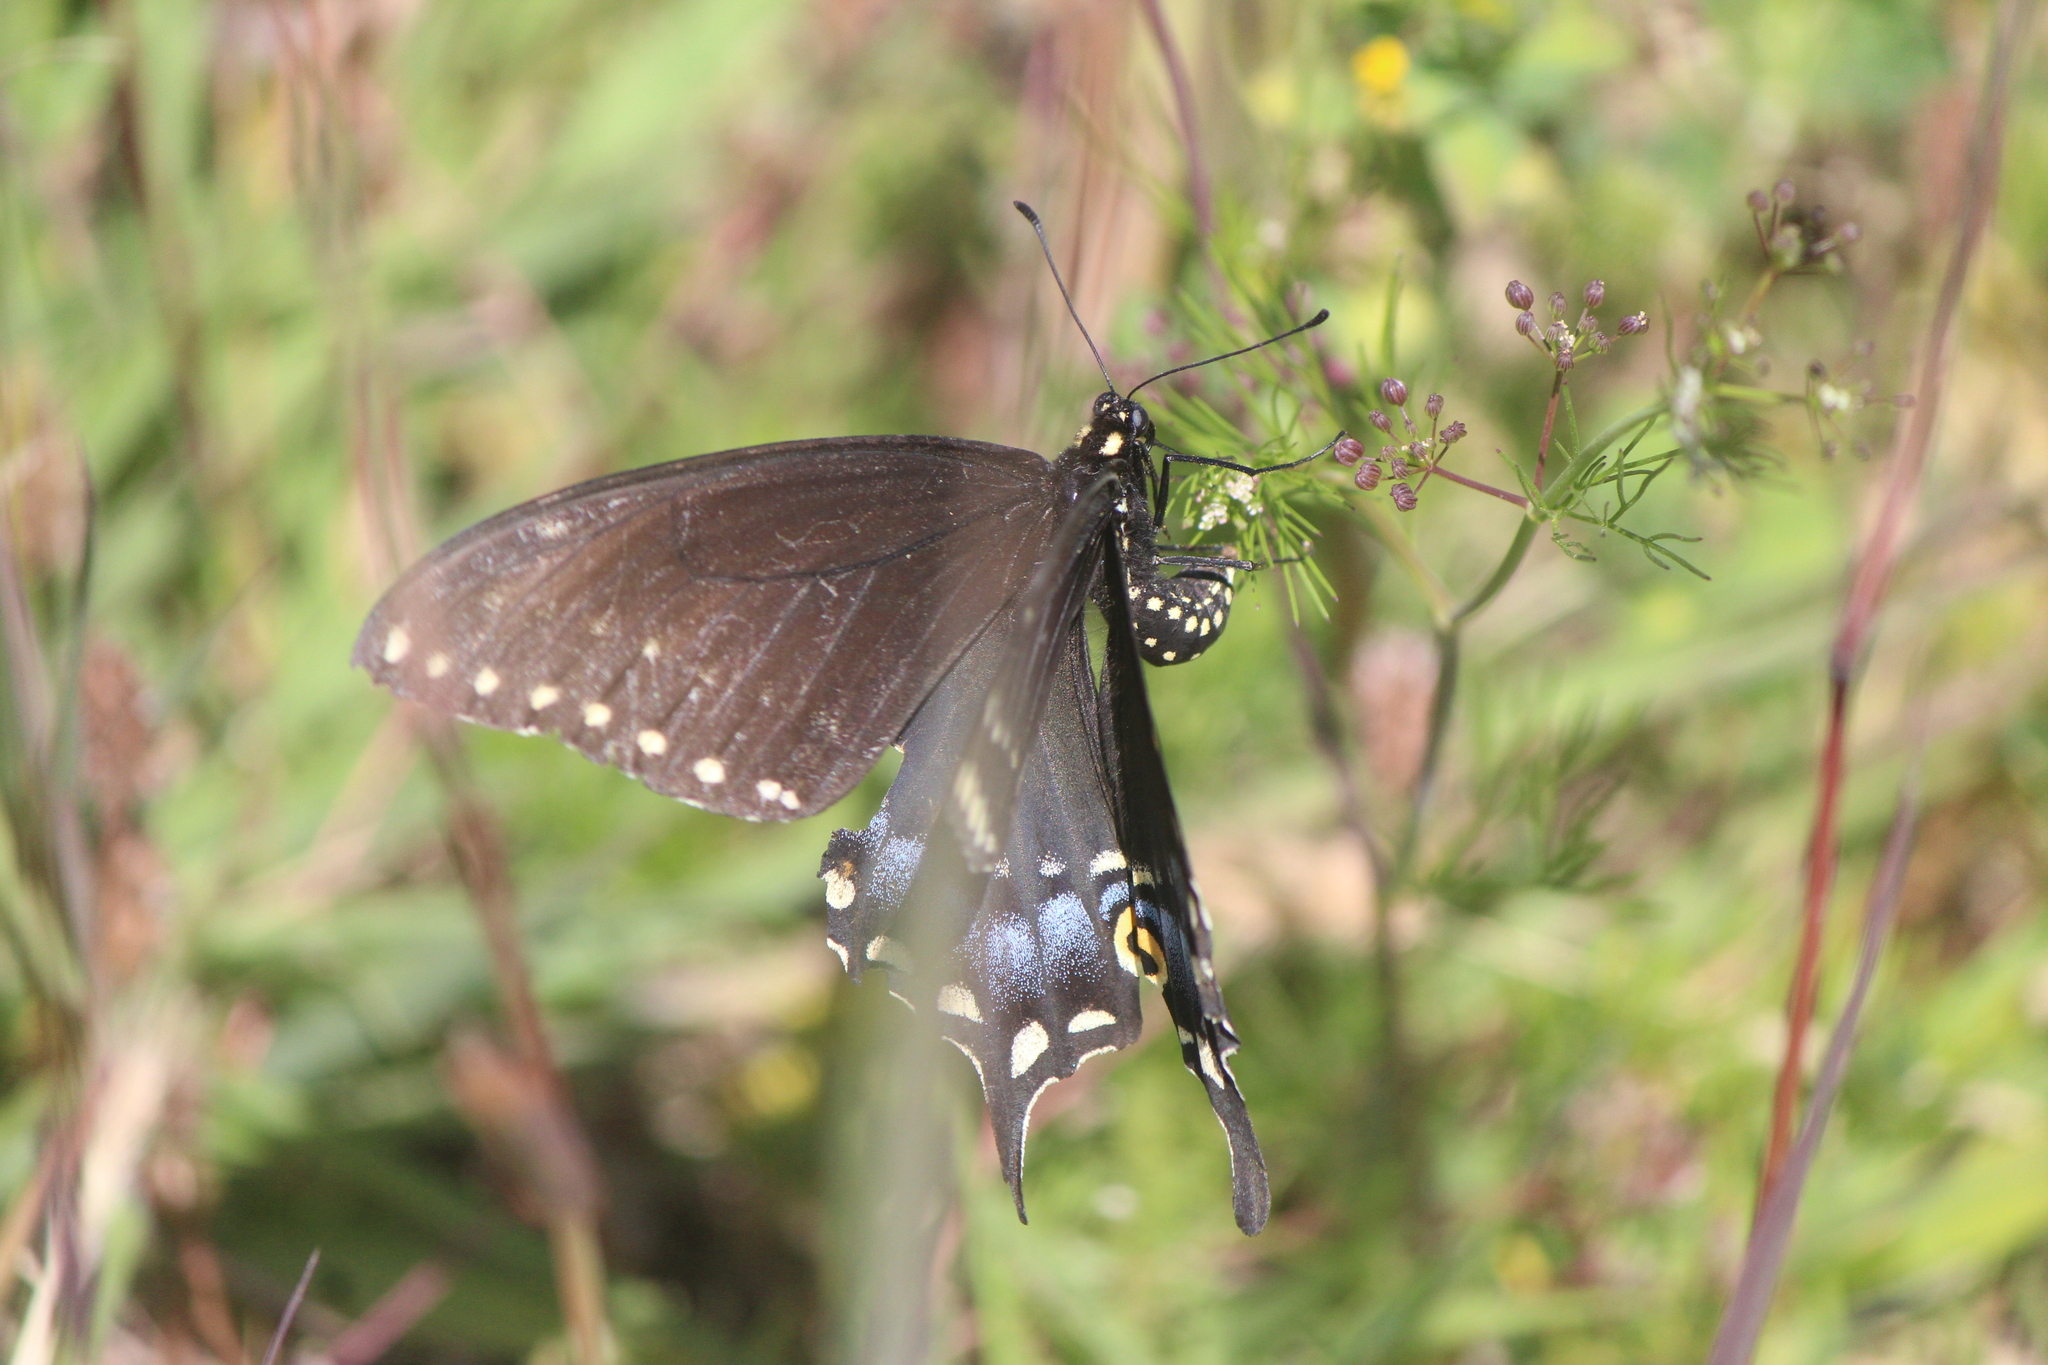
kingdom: Animalia
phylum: Arthropoda
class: Insecta
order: Lepidoptera
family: Papilionidae
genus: Papilio
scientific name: Papilio polyxenes
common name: Black swallowtail
